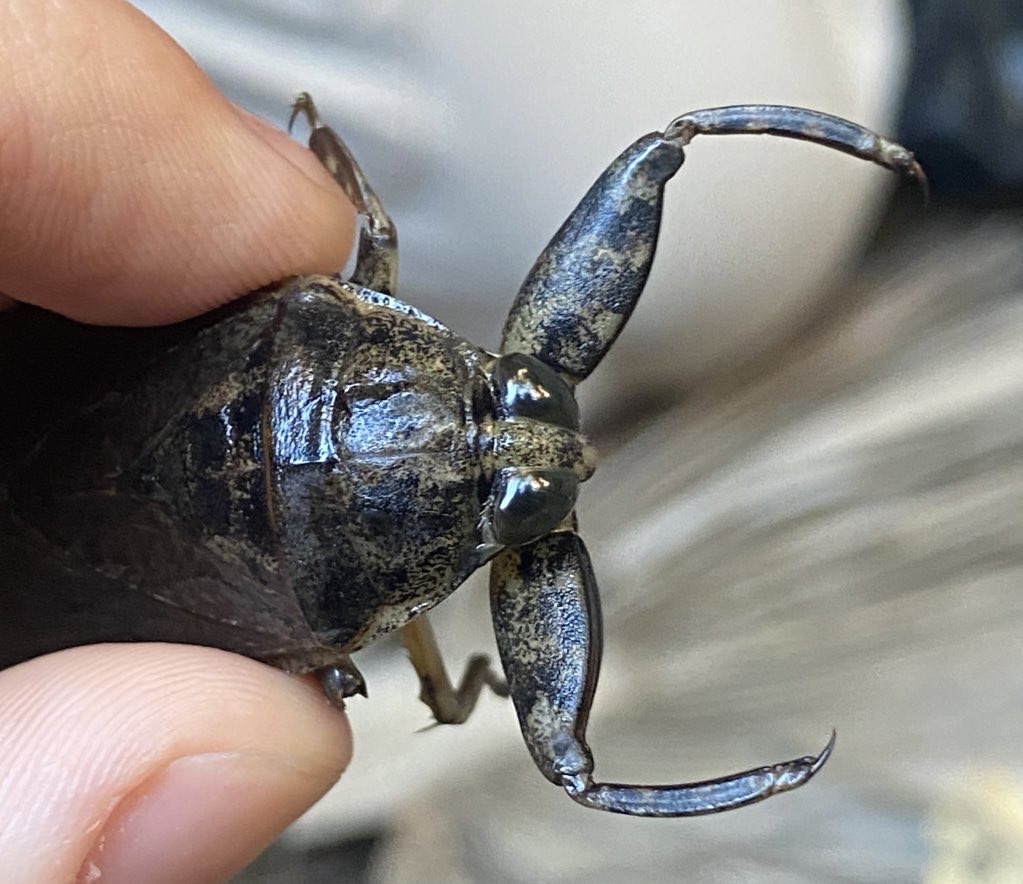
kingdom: Animalia
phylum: Arthropoda
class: Insecta
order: Hemiptera
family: Belostomatidae
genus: Lethocerus
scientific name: Lethocerus medius
